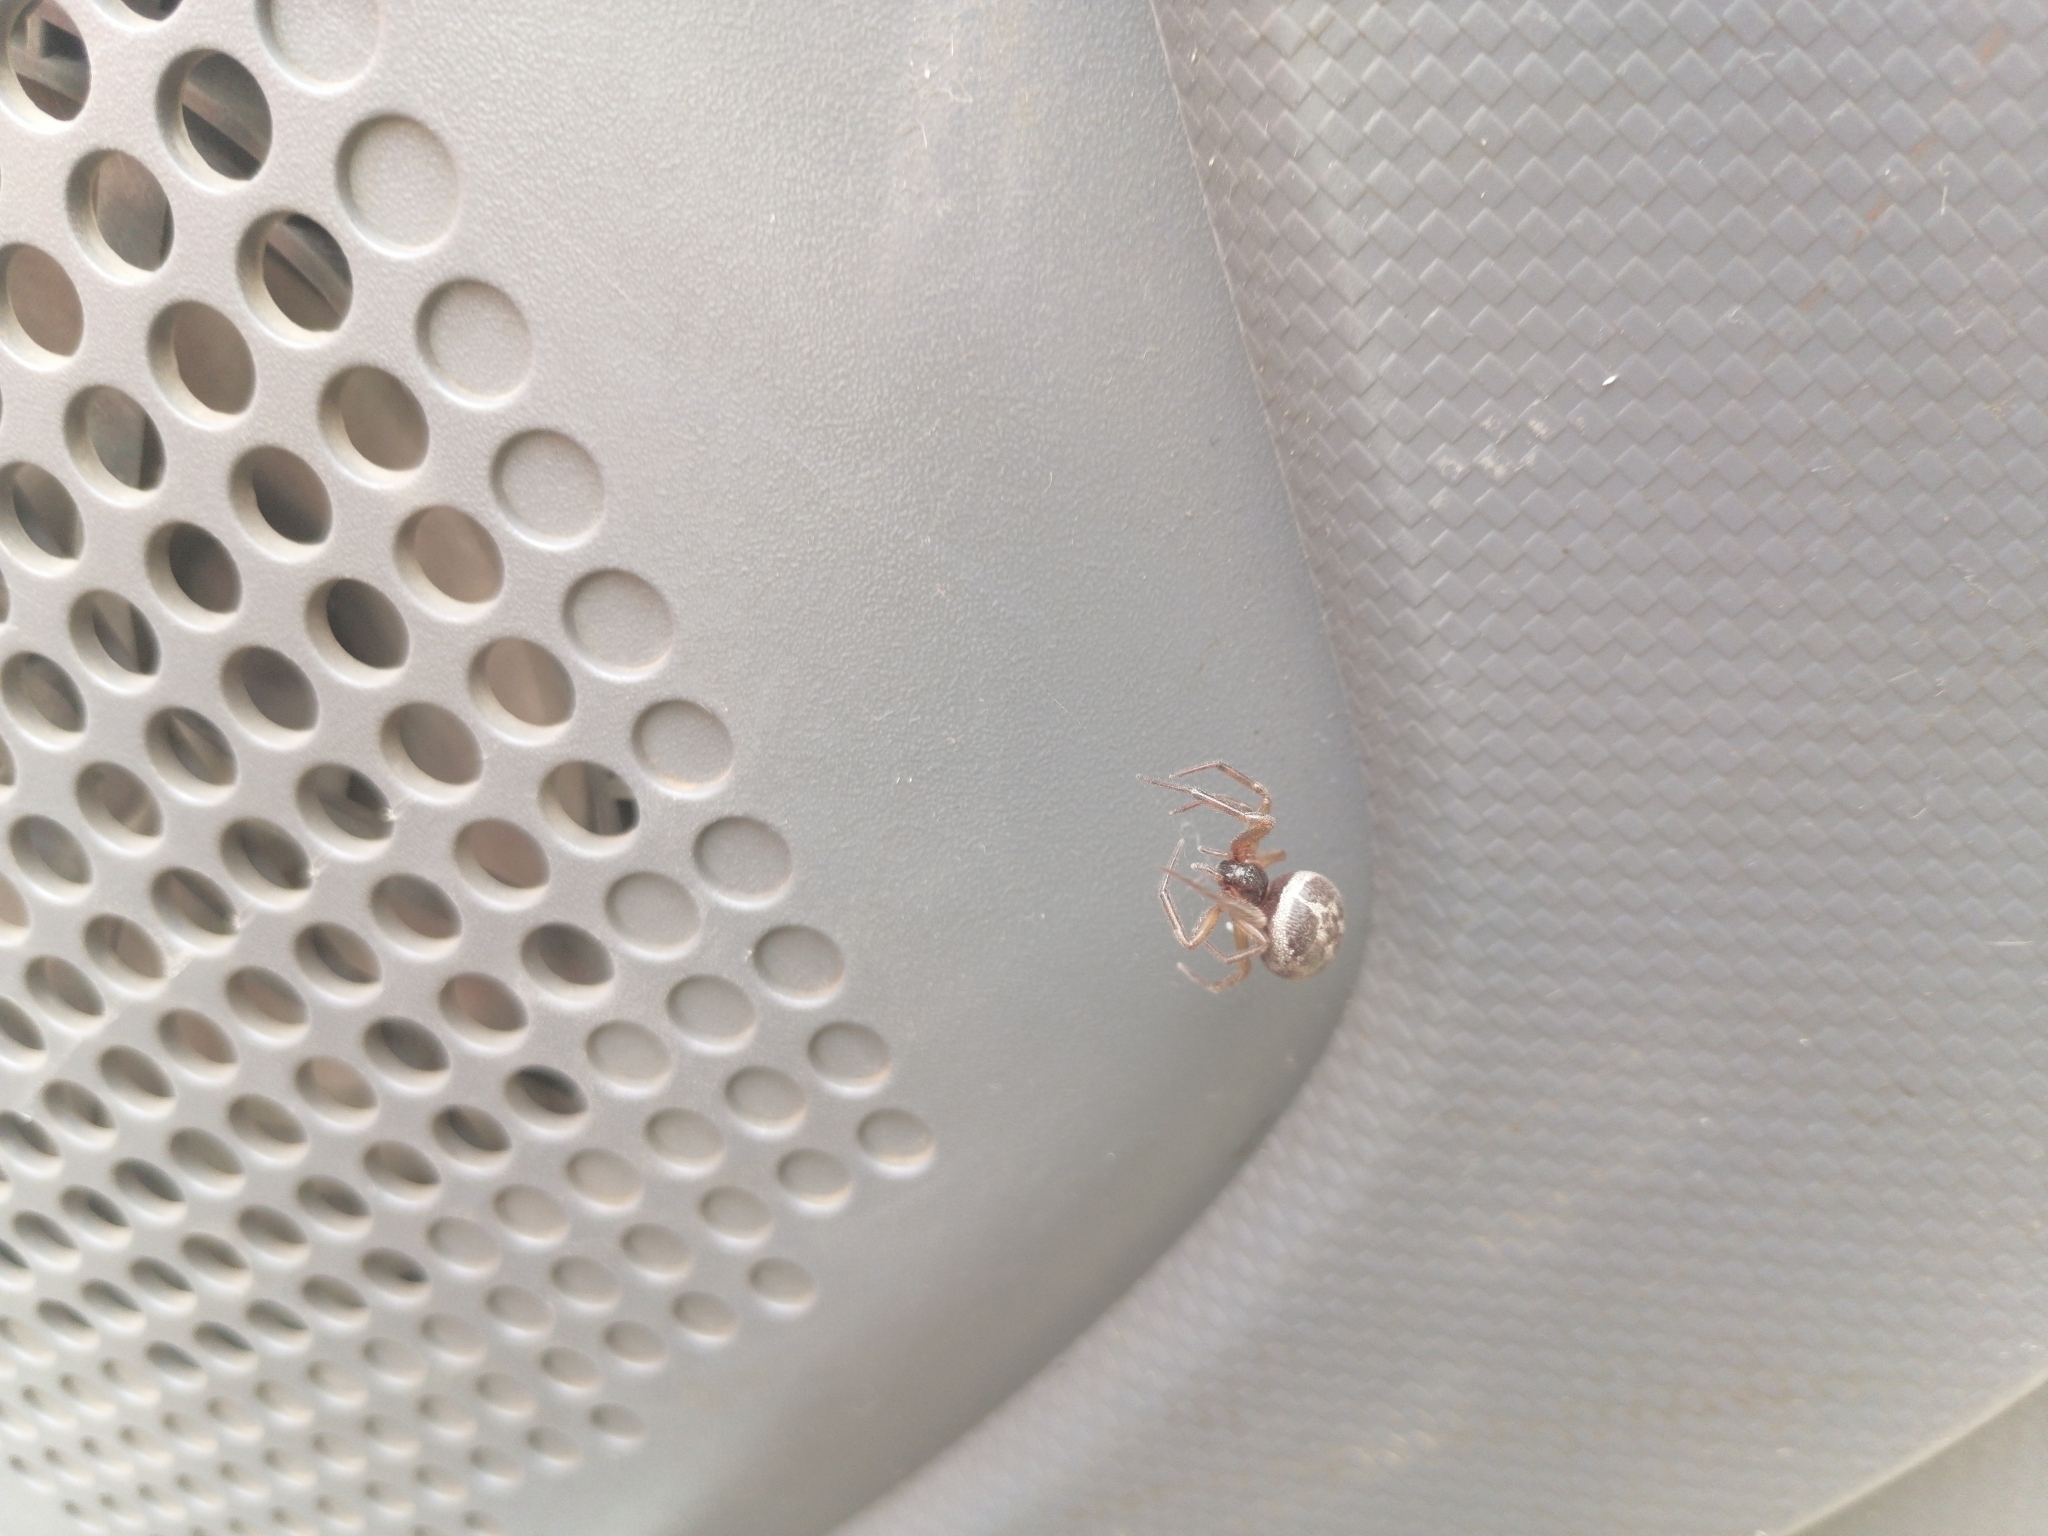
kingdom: Animalia
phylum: Arthropoda
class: Arachnida
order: Araneae
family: Theridiidae
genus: Steatoda
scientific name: Steatoda nobilis
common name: Cobweb weaver
